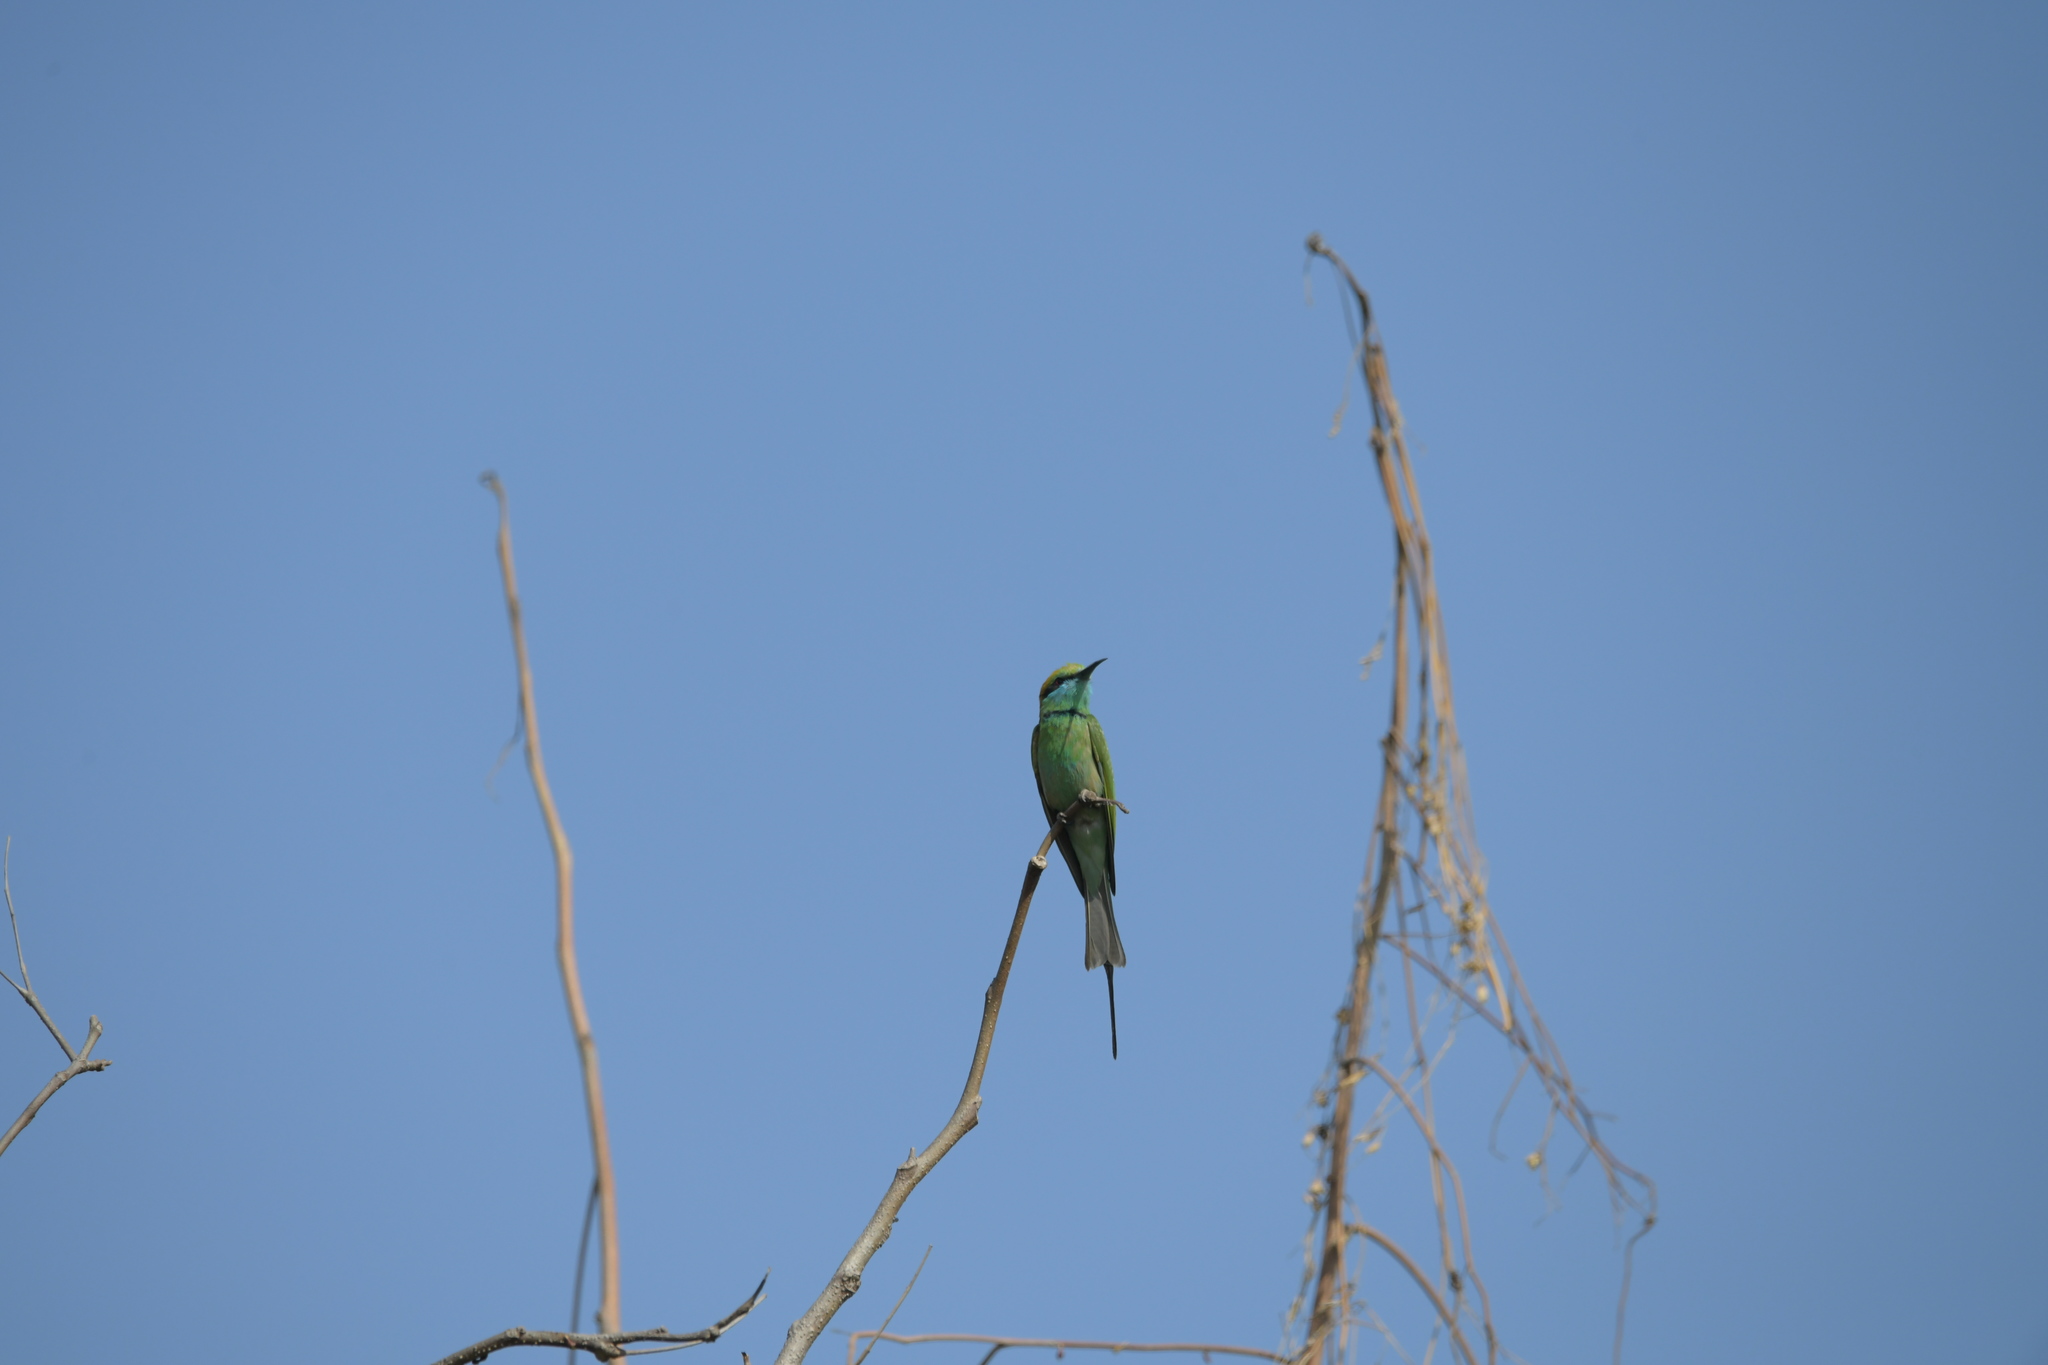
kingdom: Animalia
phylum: Chordata
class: Aves
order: Coraciiformes
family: Meropidae
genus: Merops
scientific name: Merops orientalis
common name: Green bee-eater
